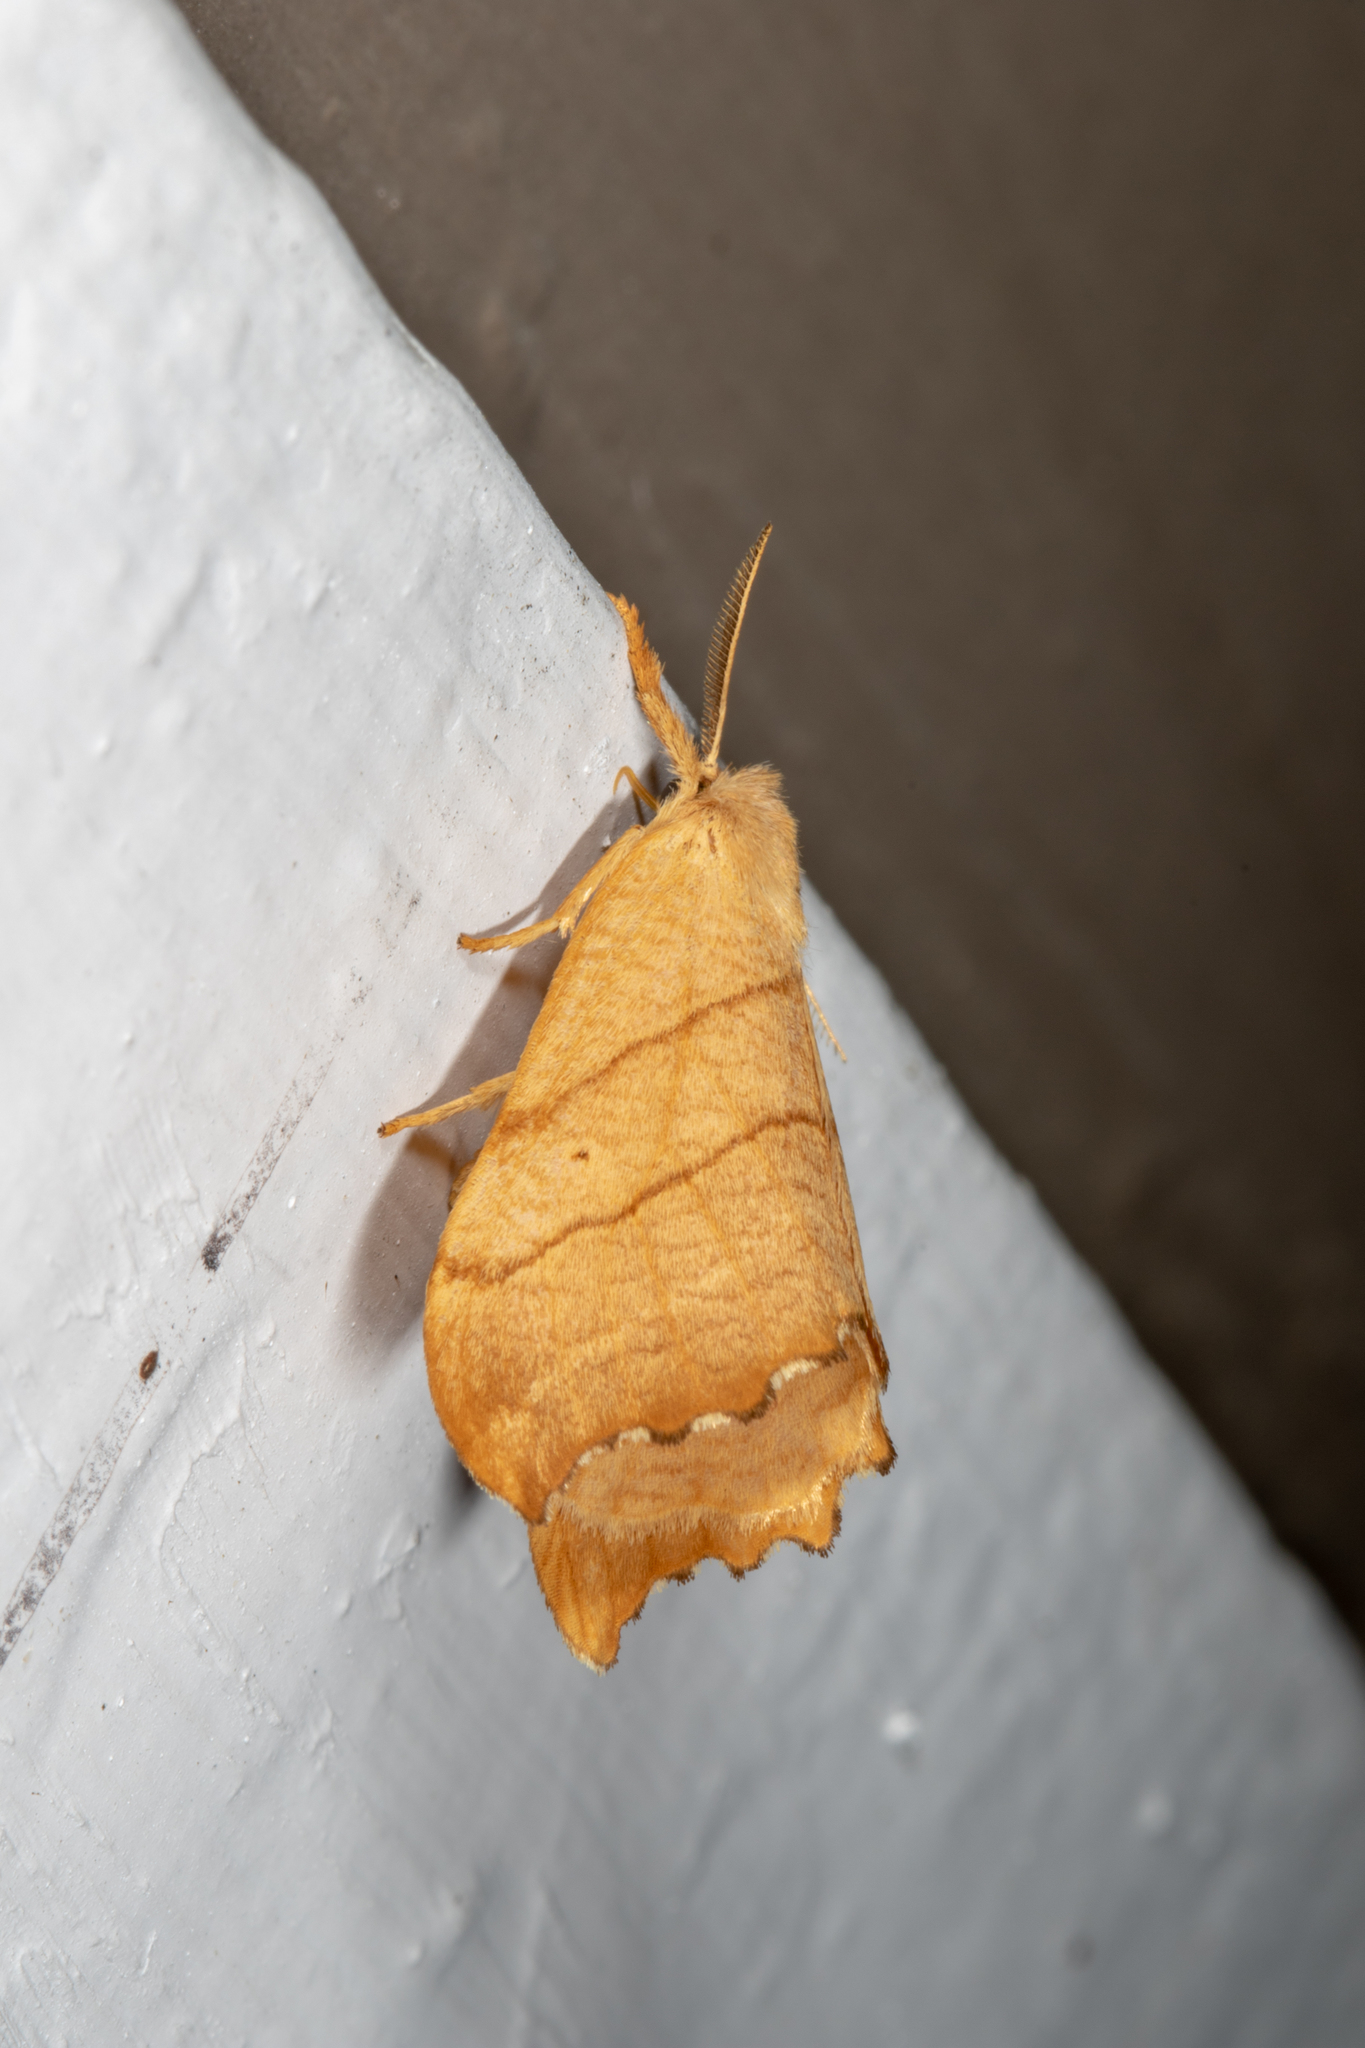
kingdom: Animalia
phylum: Arthropoda
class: Insecta
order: Lepidoptera
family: Drepanidae
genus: Falcaria
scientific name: Falcaria bilineata
